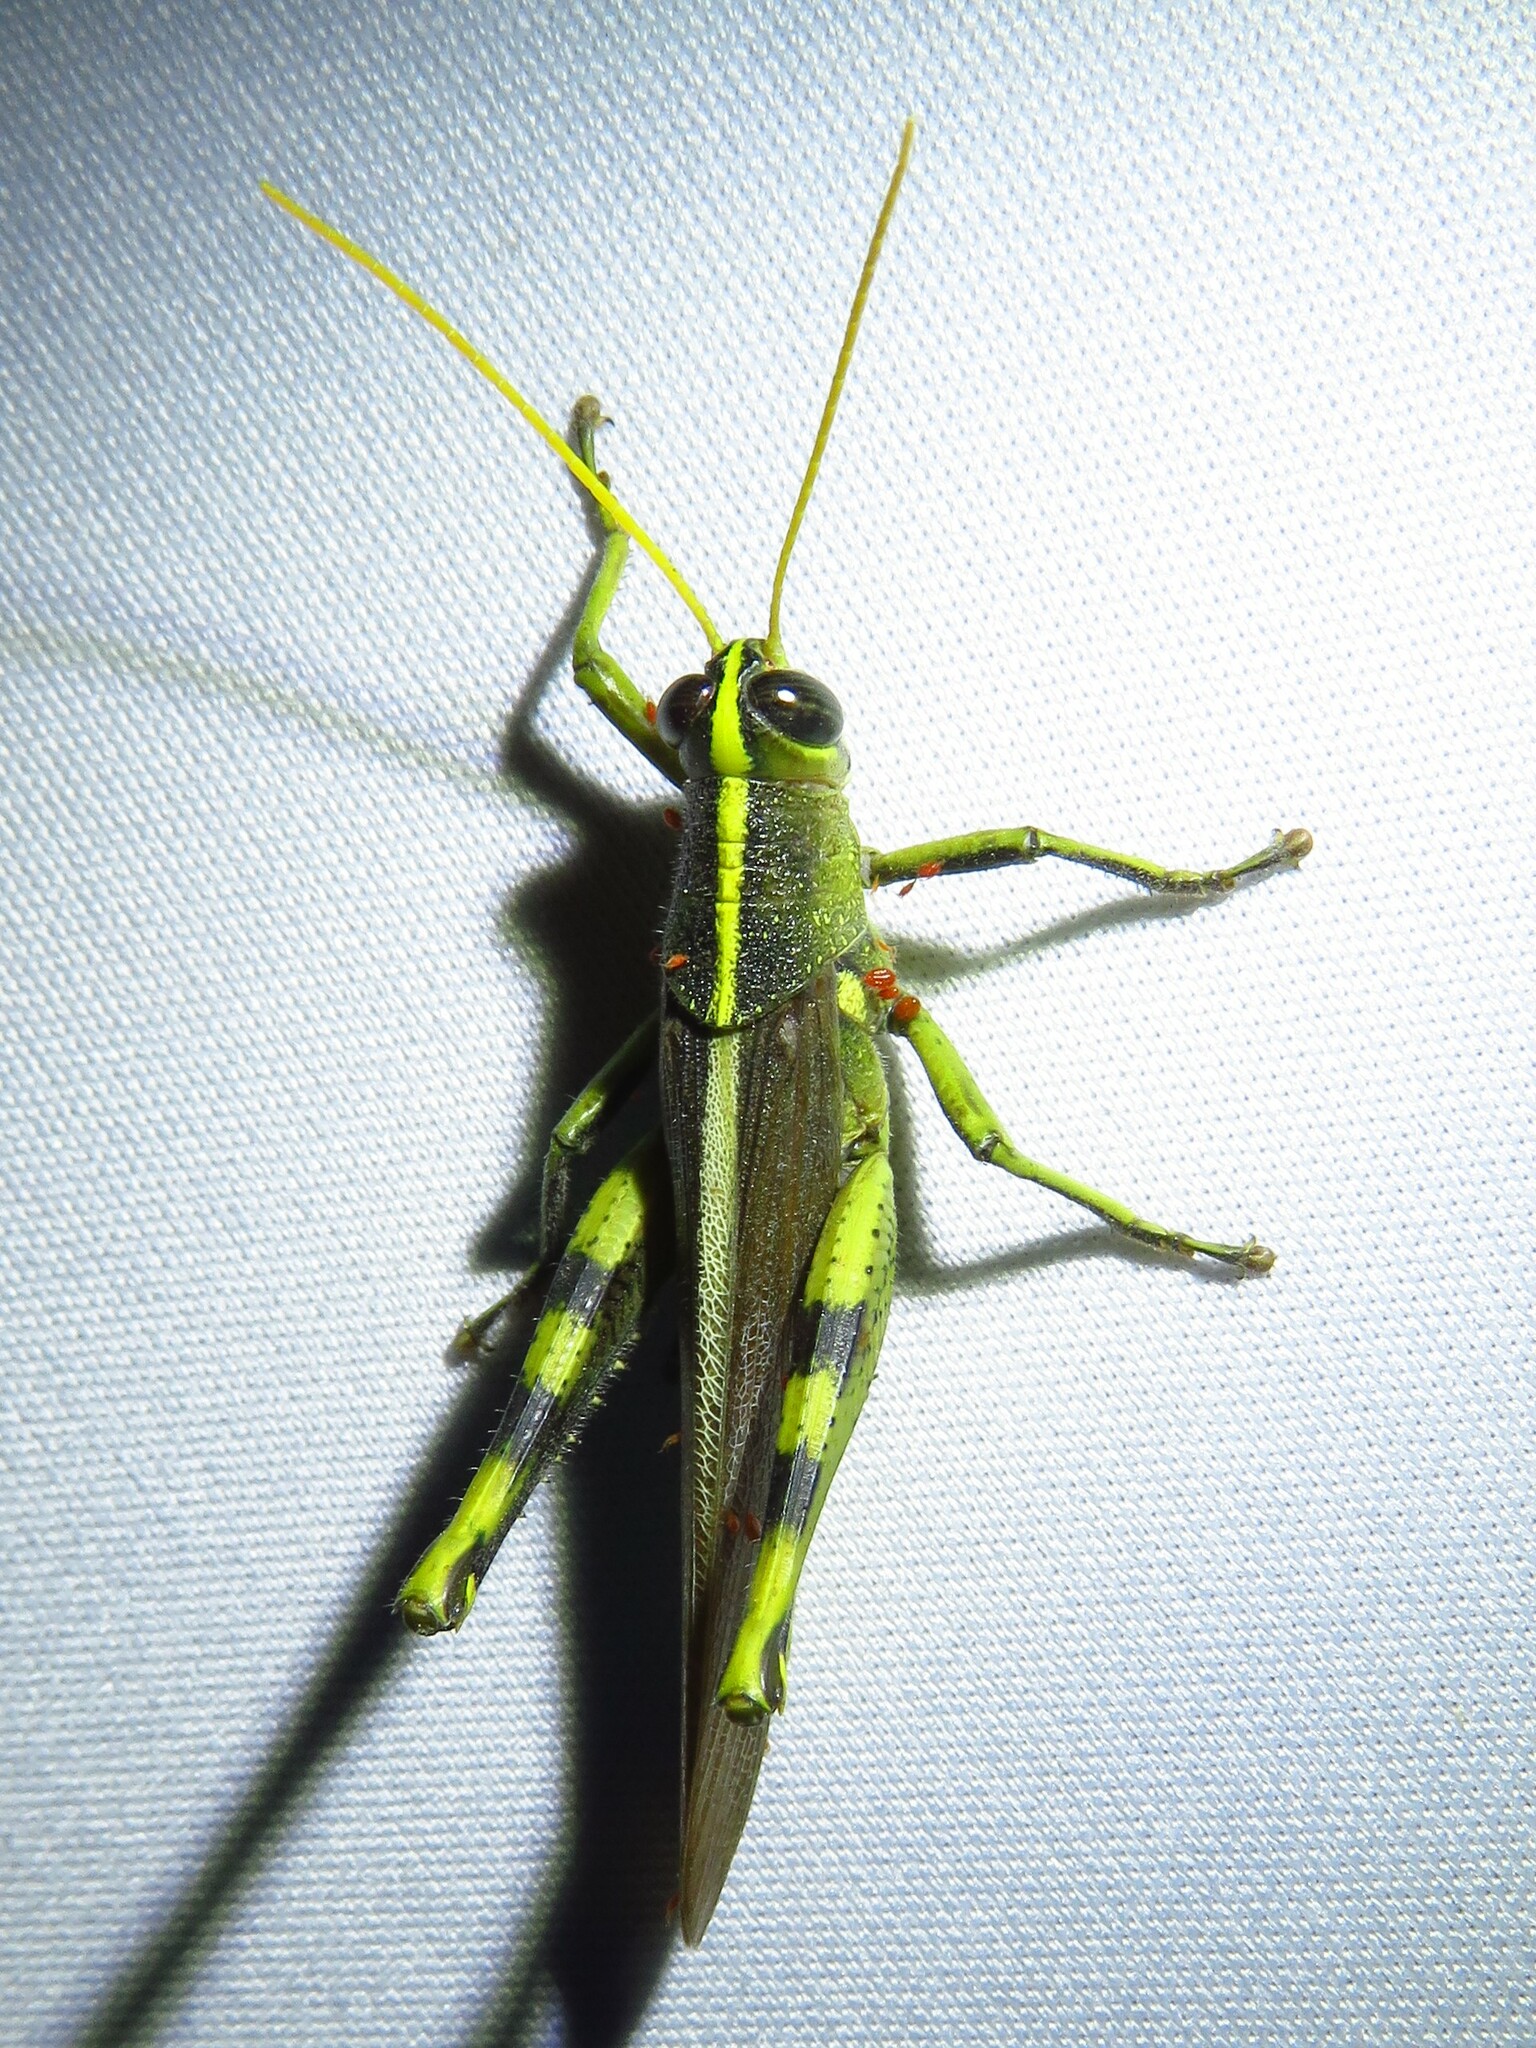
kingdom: Animalia
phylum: Arthropoda
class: Insecta
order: Orthoptera
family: Acrididae
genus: Schistocerca
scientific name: Schistocerca obscura
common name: Obscure bird grasshopper
